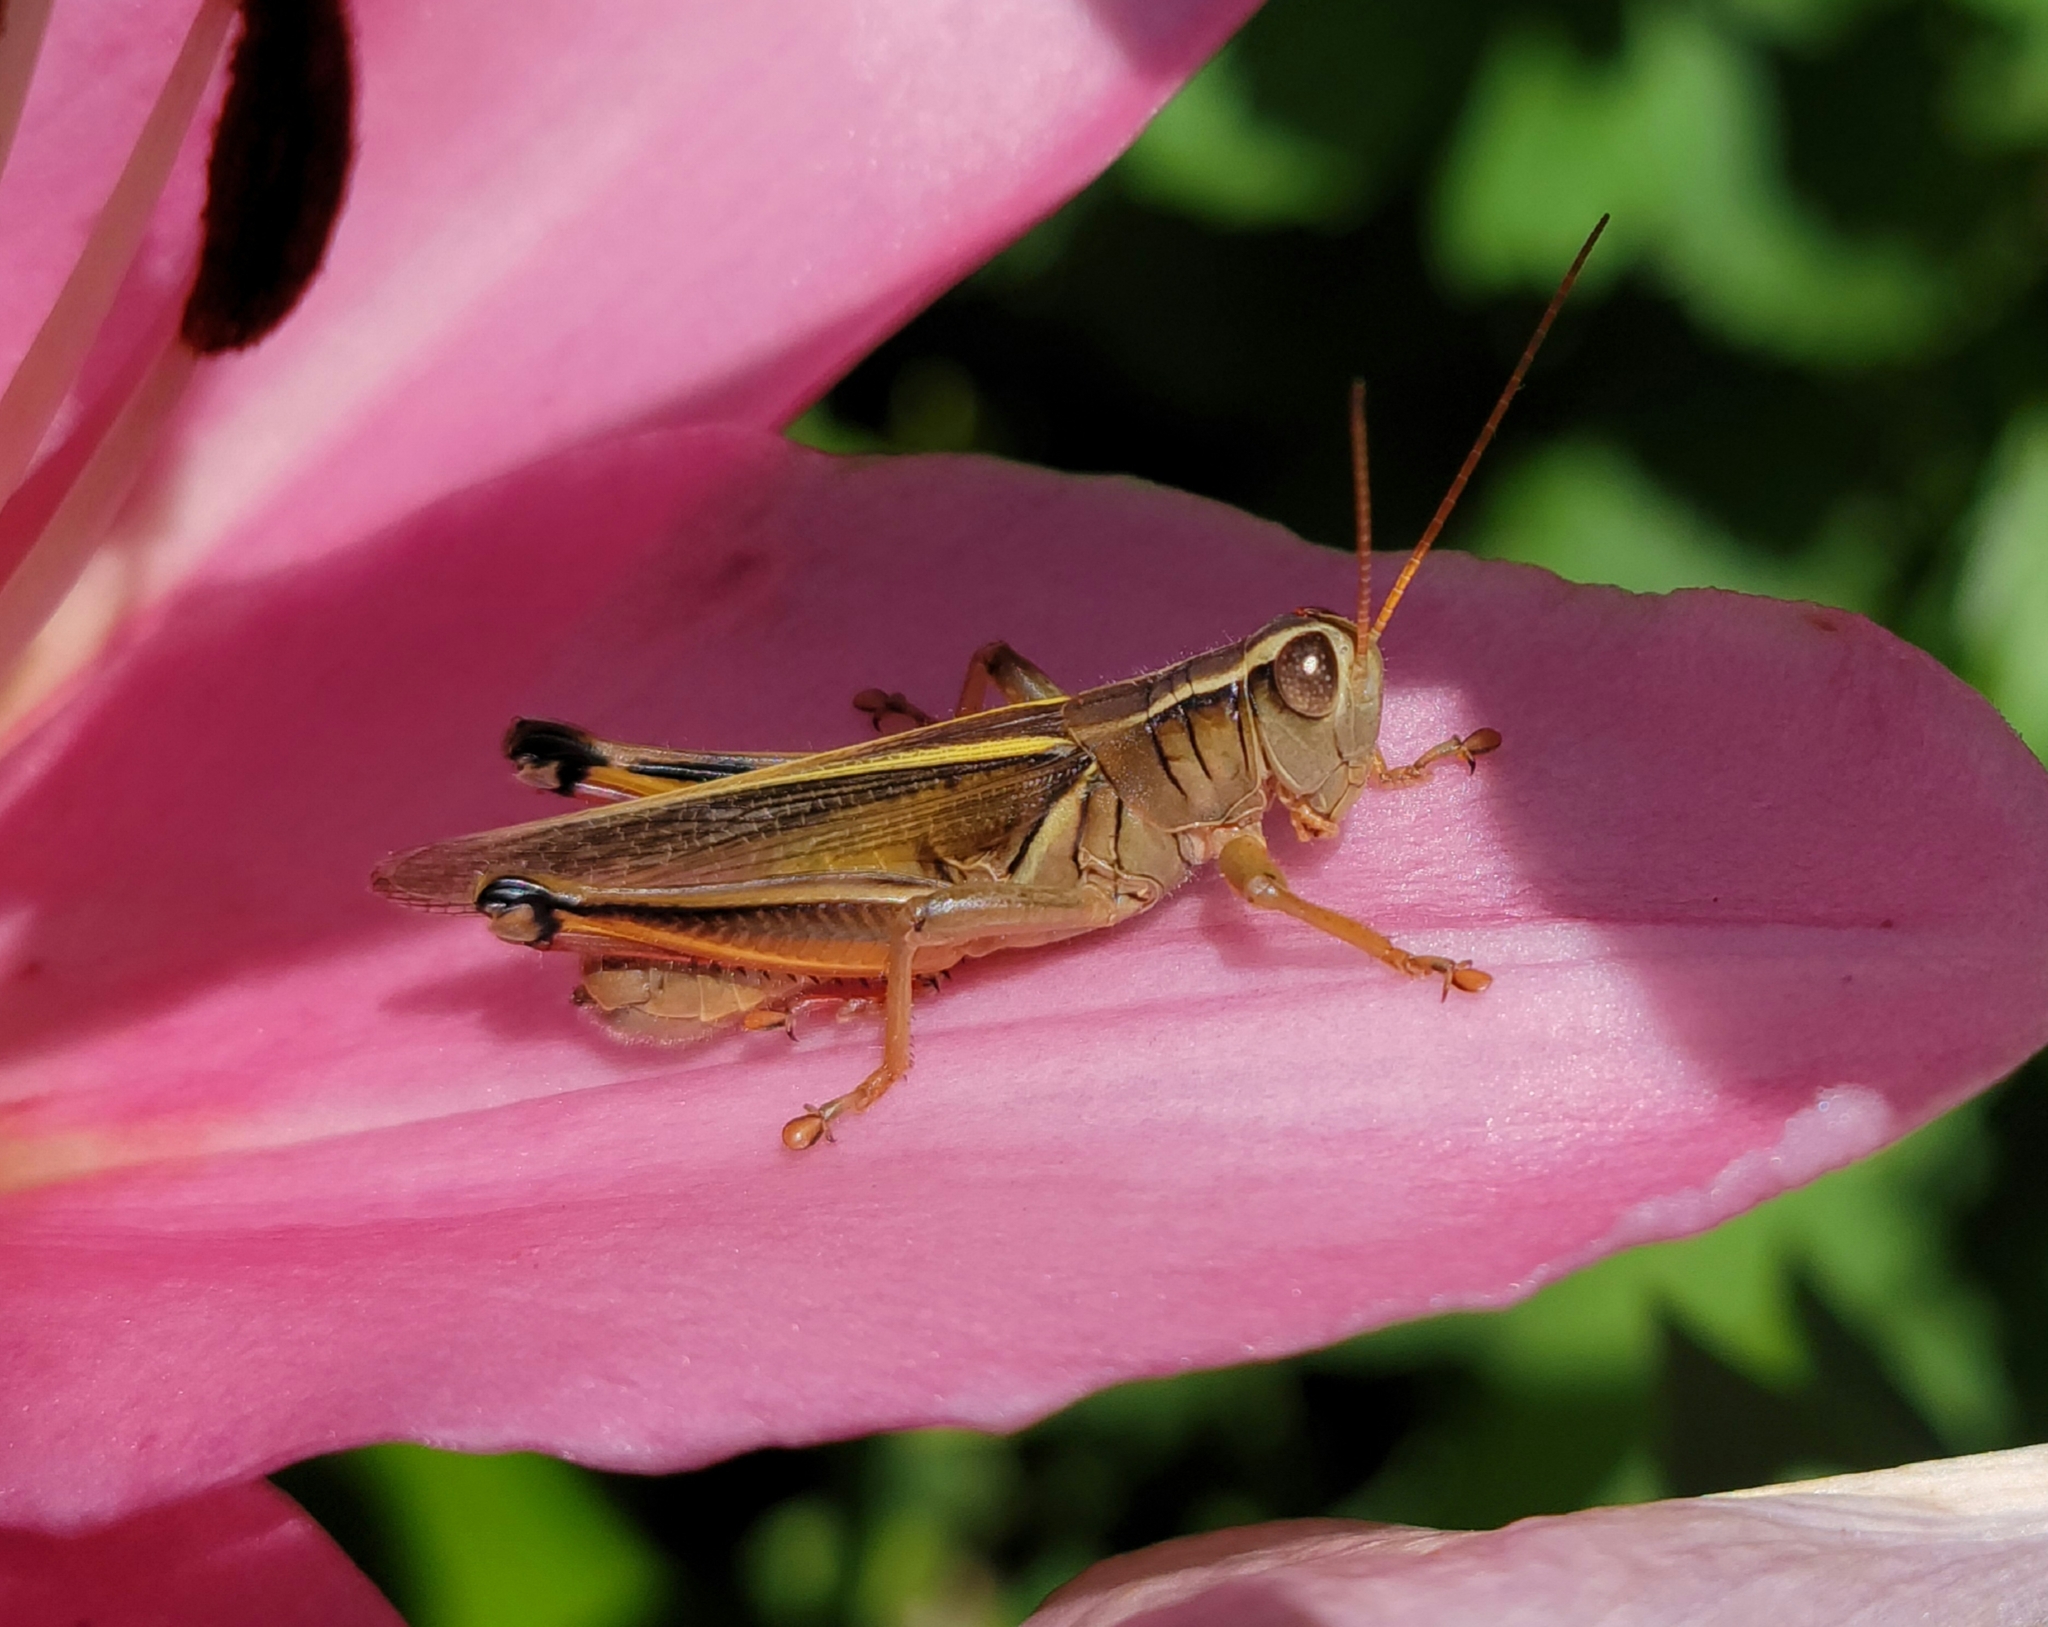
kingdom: Animalia
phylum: Arthropoda
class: Insecta
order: Orthoptera
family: Acrididae
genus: Melanoplus
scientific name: Melanoplus bivittatus
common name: Two-striped grasshopper
